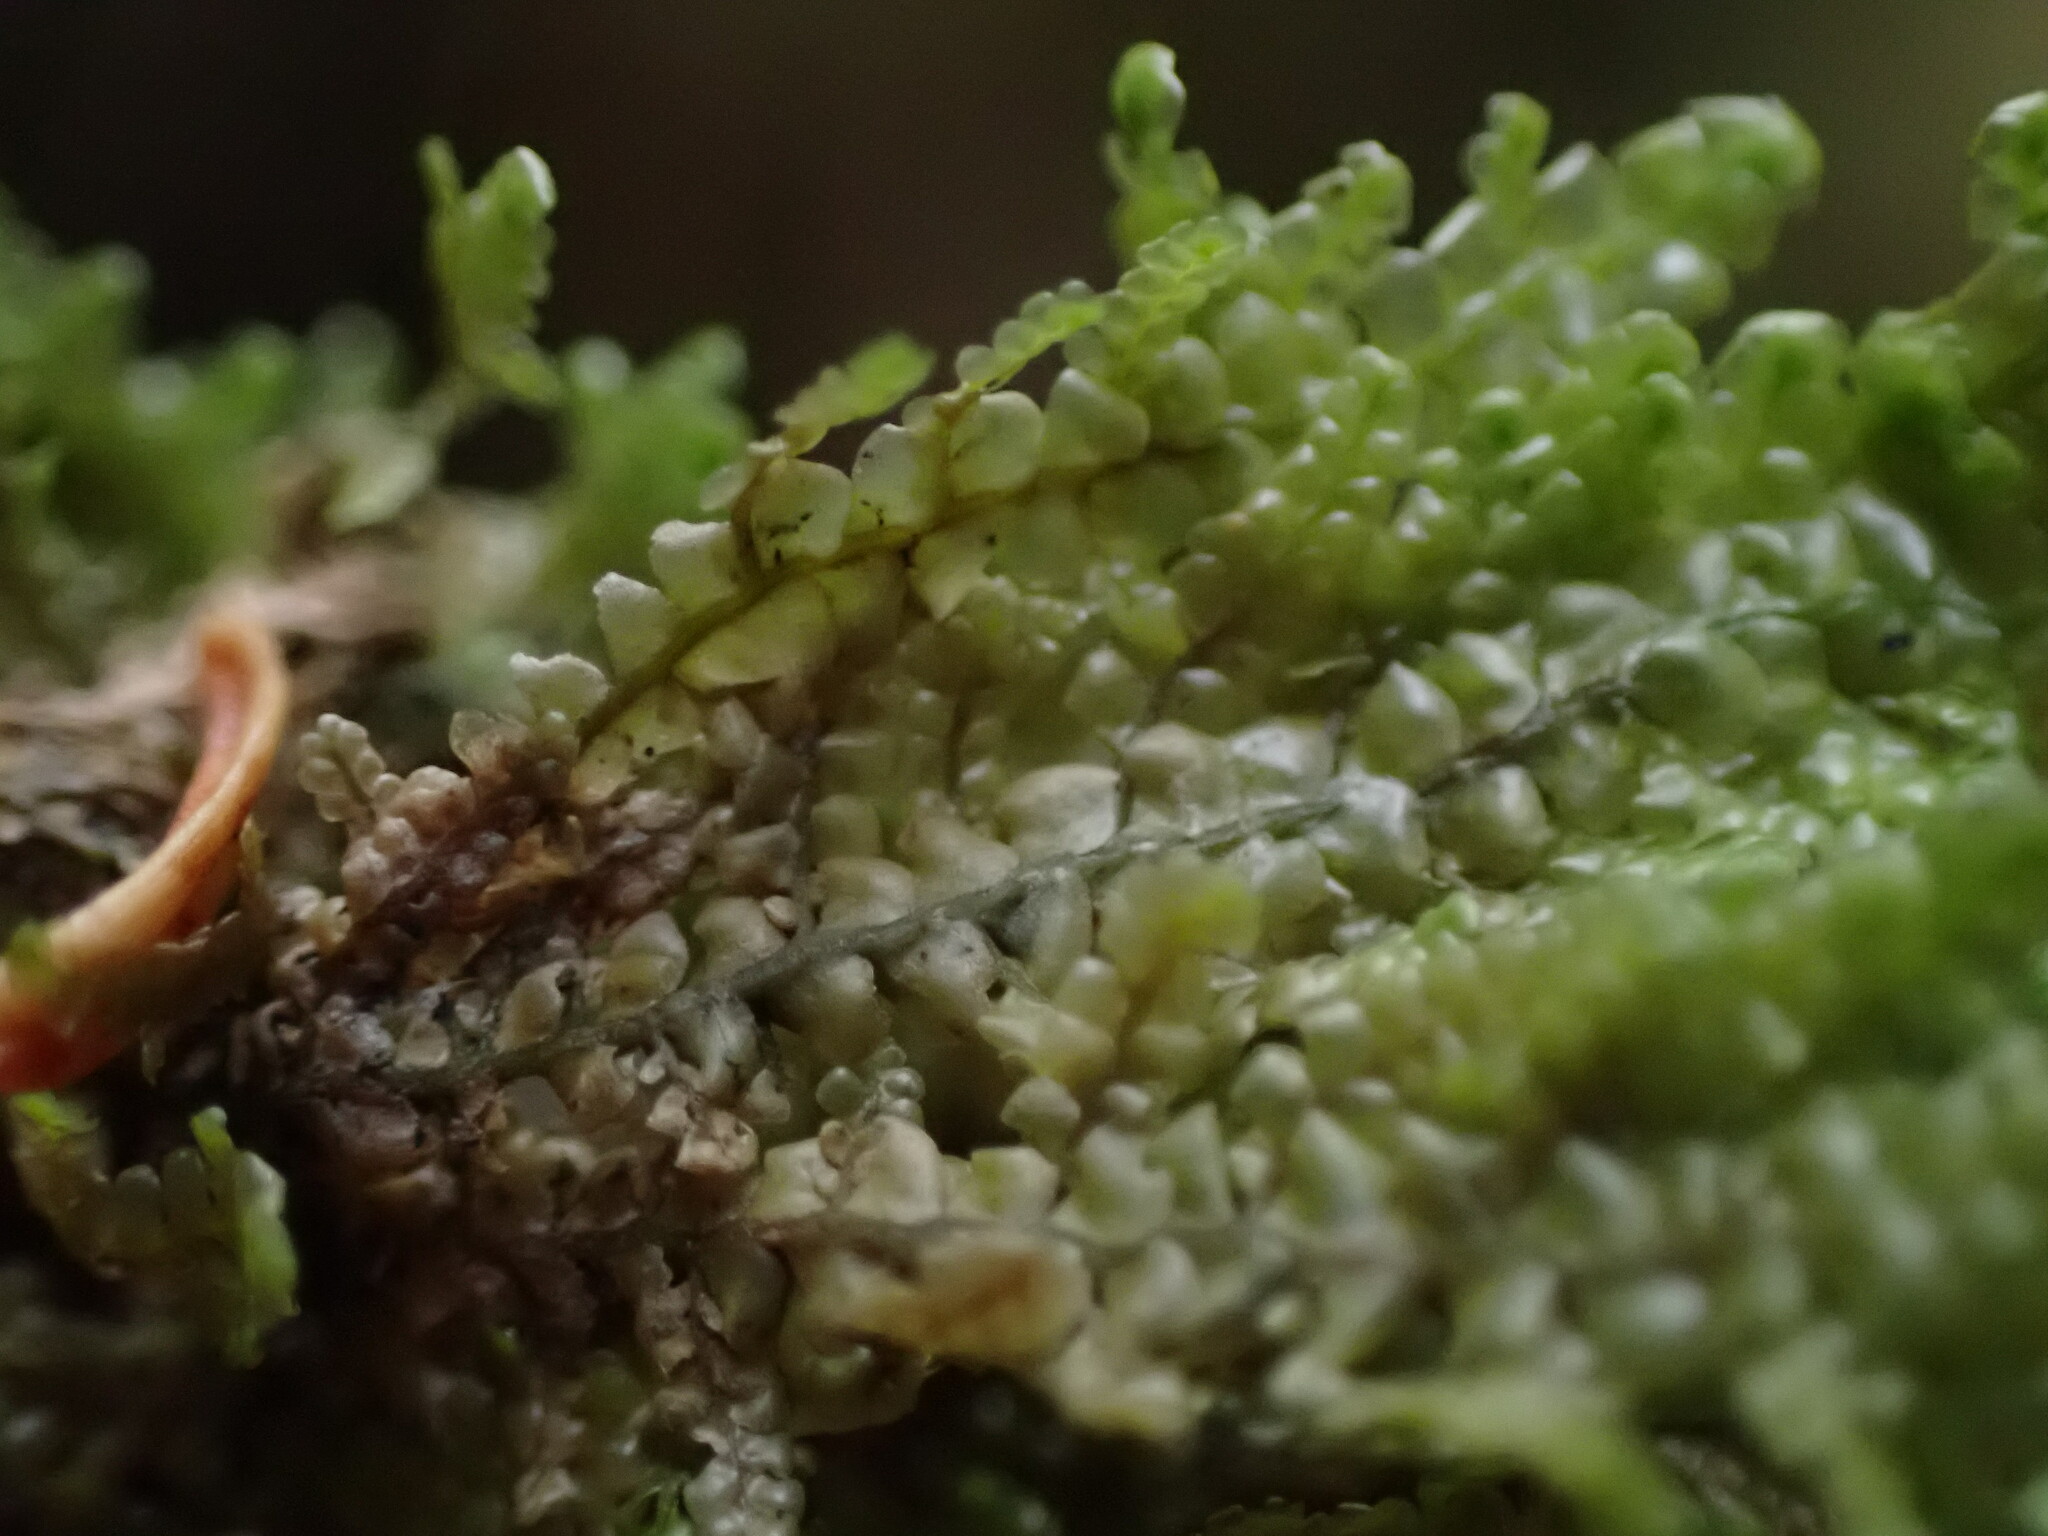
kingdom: Plantae
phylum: Marchantiophyta
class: Jungermanniopsida
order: Porellales
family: Radulaceae
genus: Radula
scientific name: Radula obtusiloba
